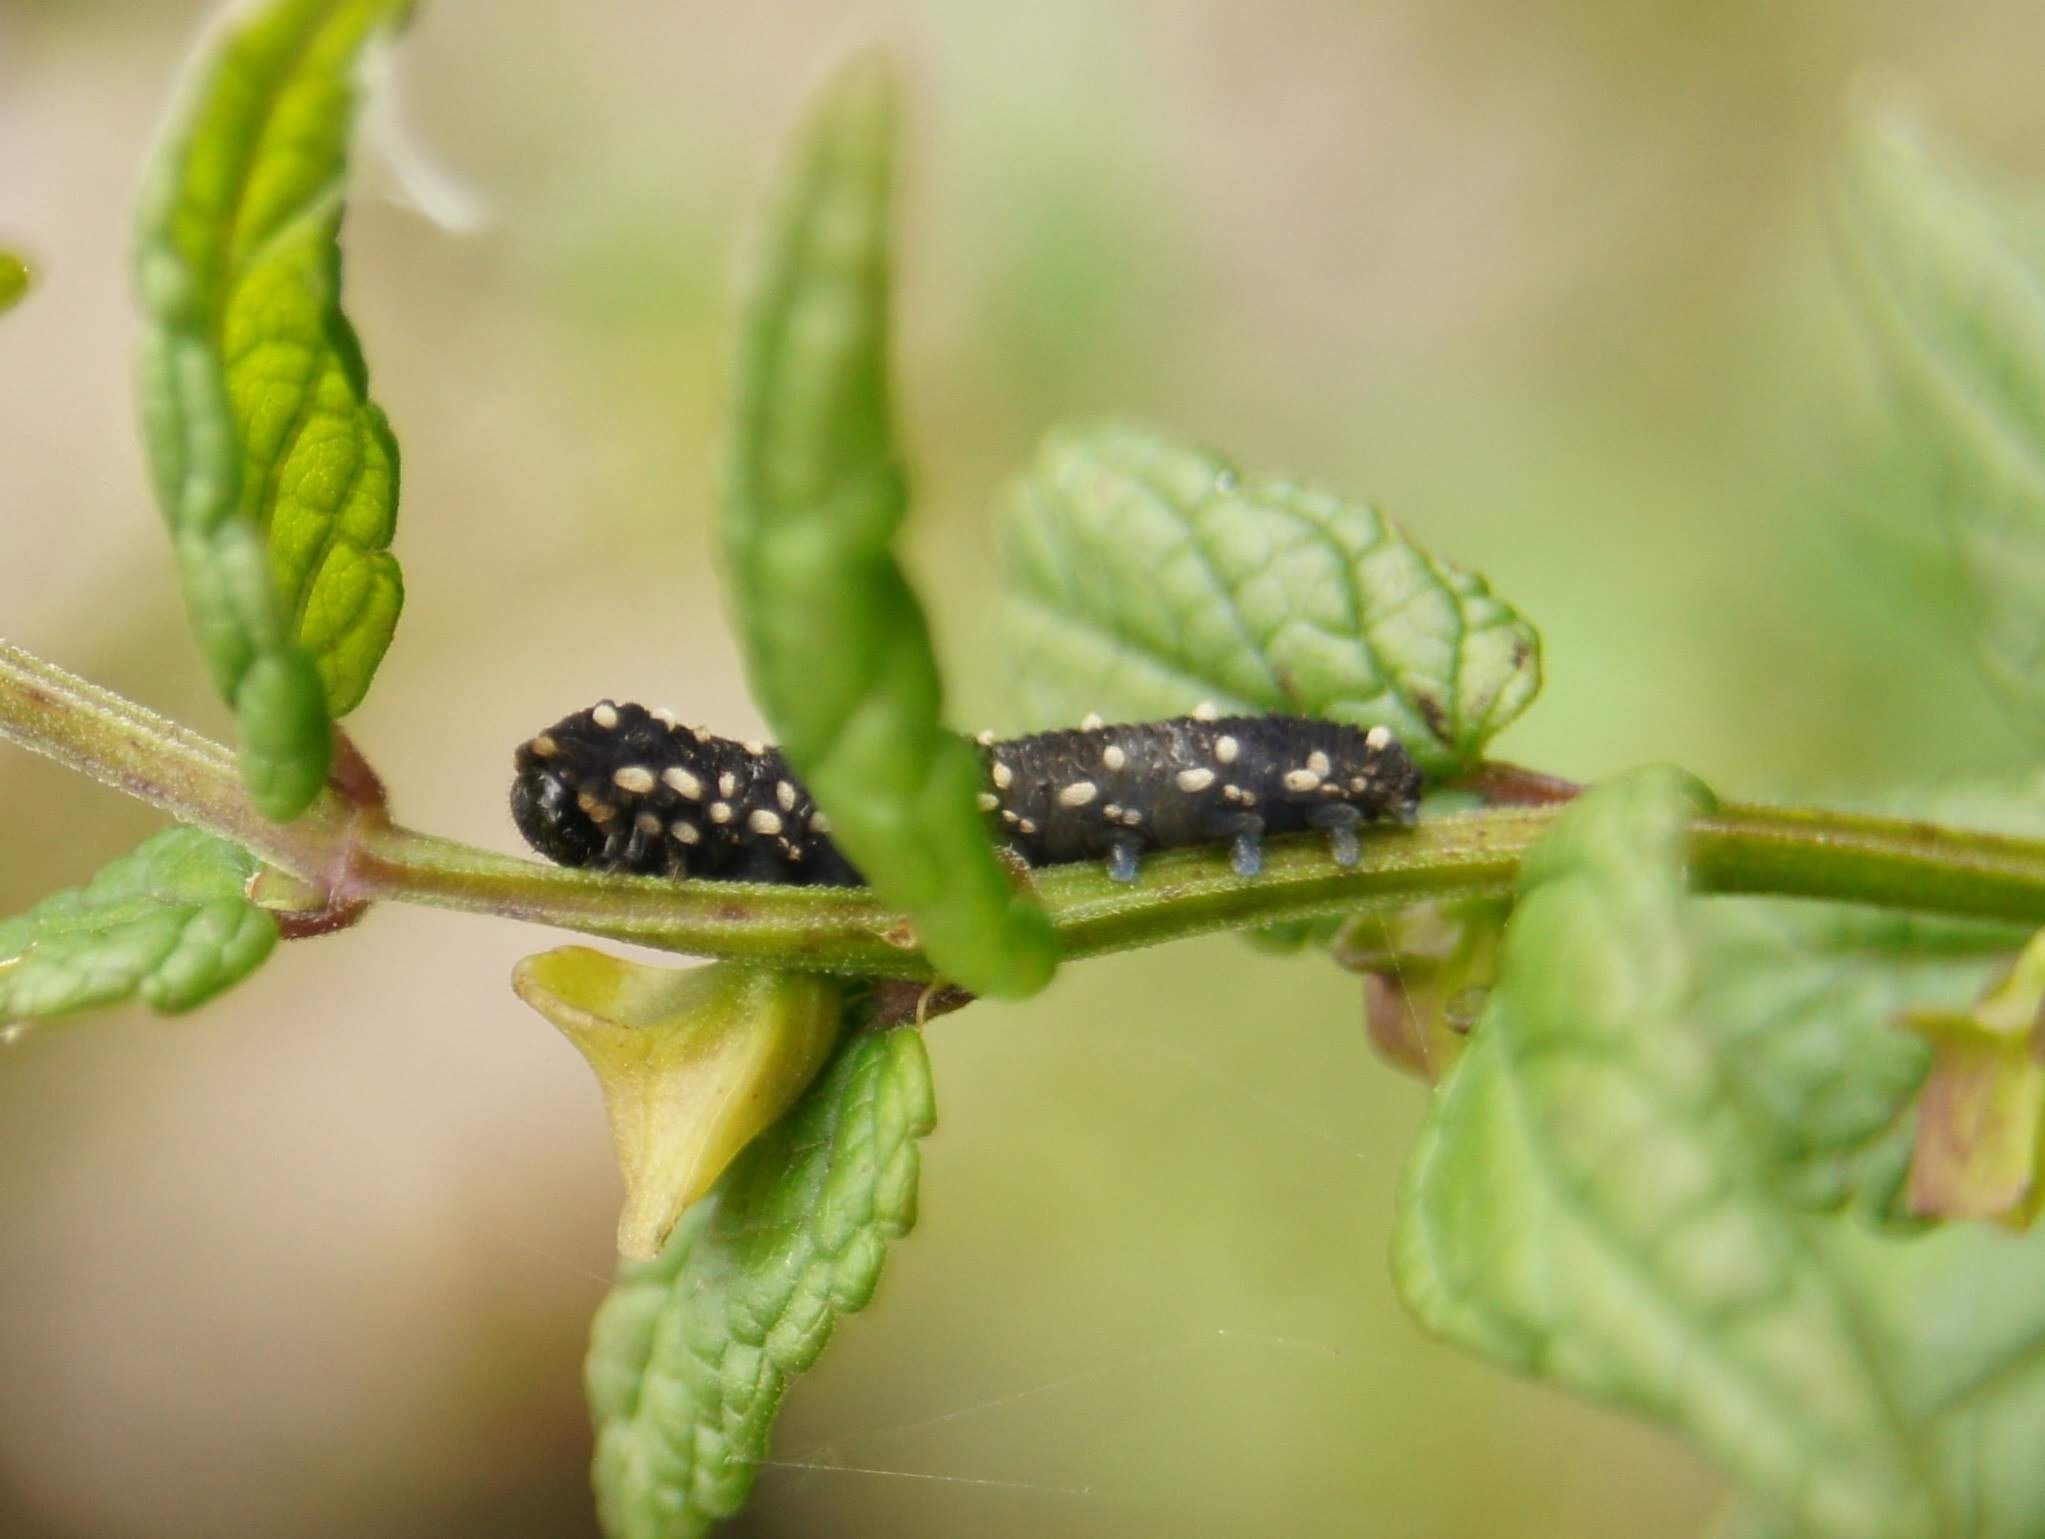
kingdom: Animalia
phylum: Arthropoda
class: Insecta
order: Hymenoptera
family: Tenthredinidae
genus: Athalia
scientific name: Athalia scutellariae
